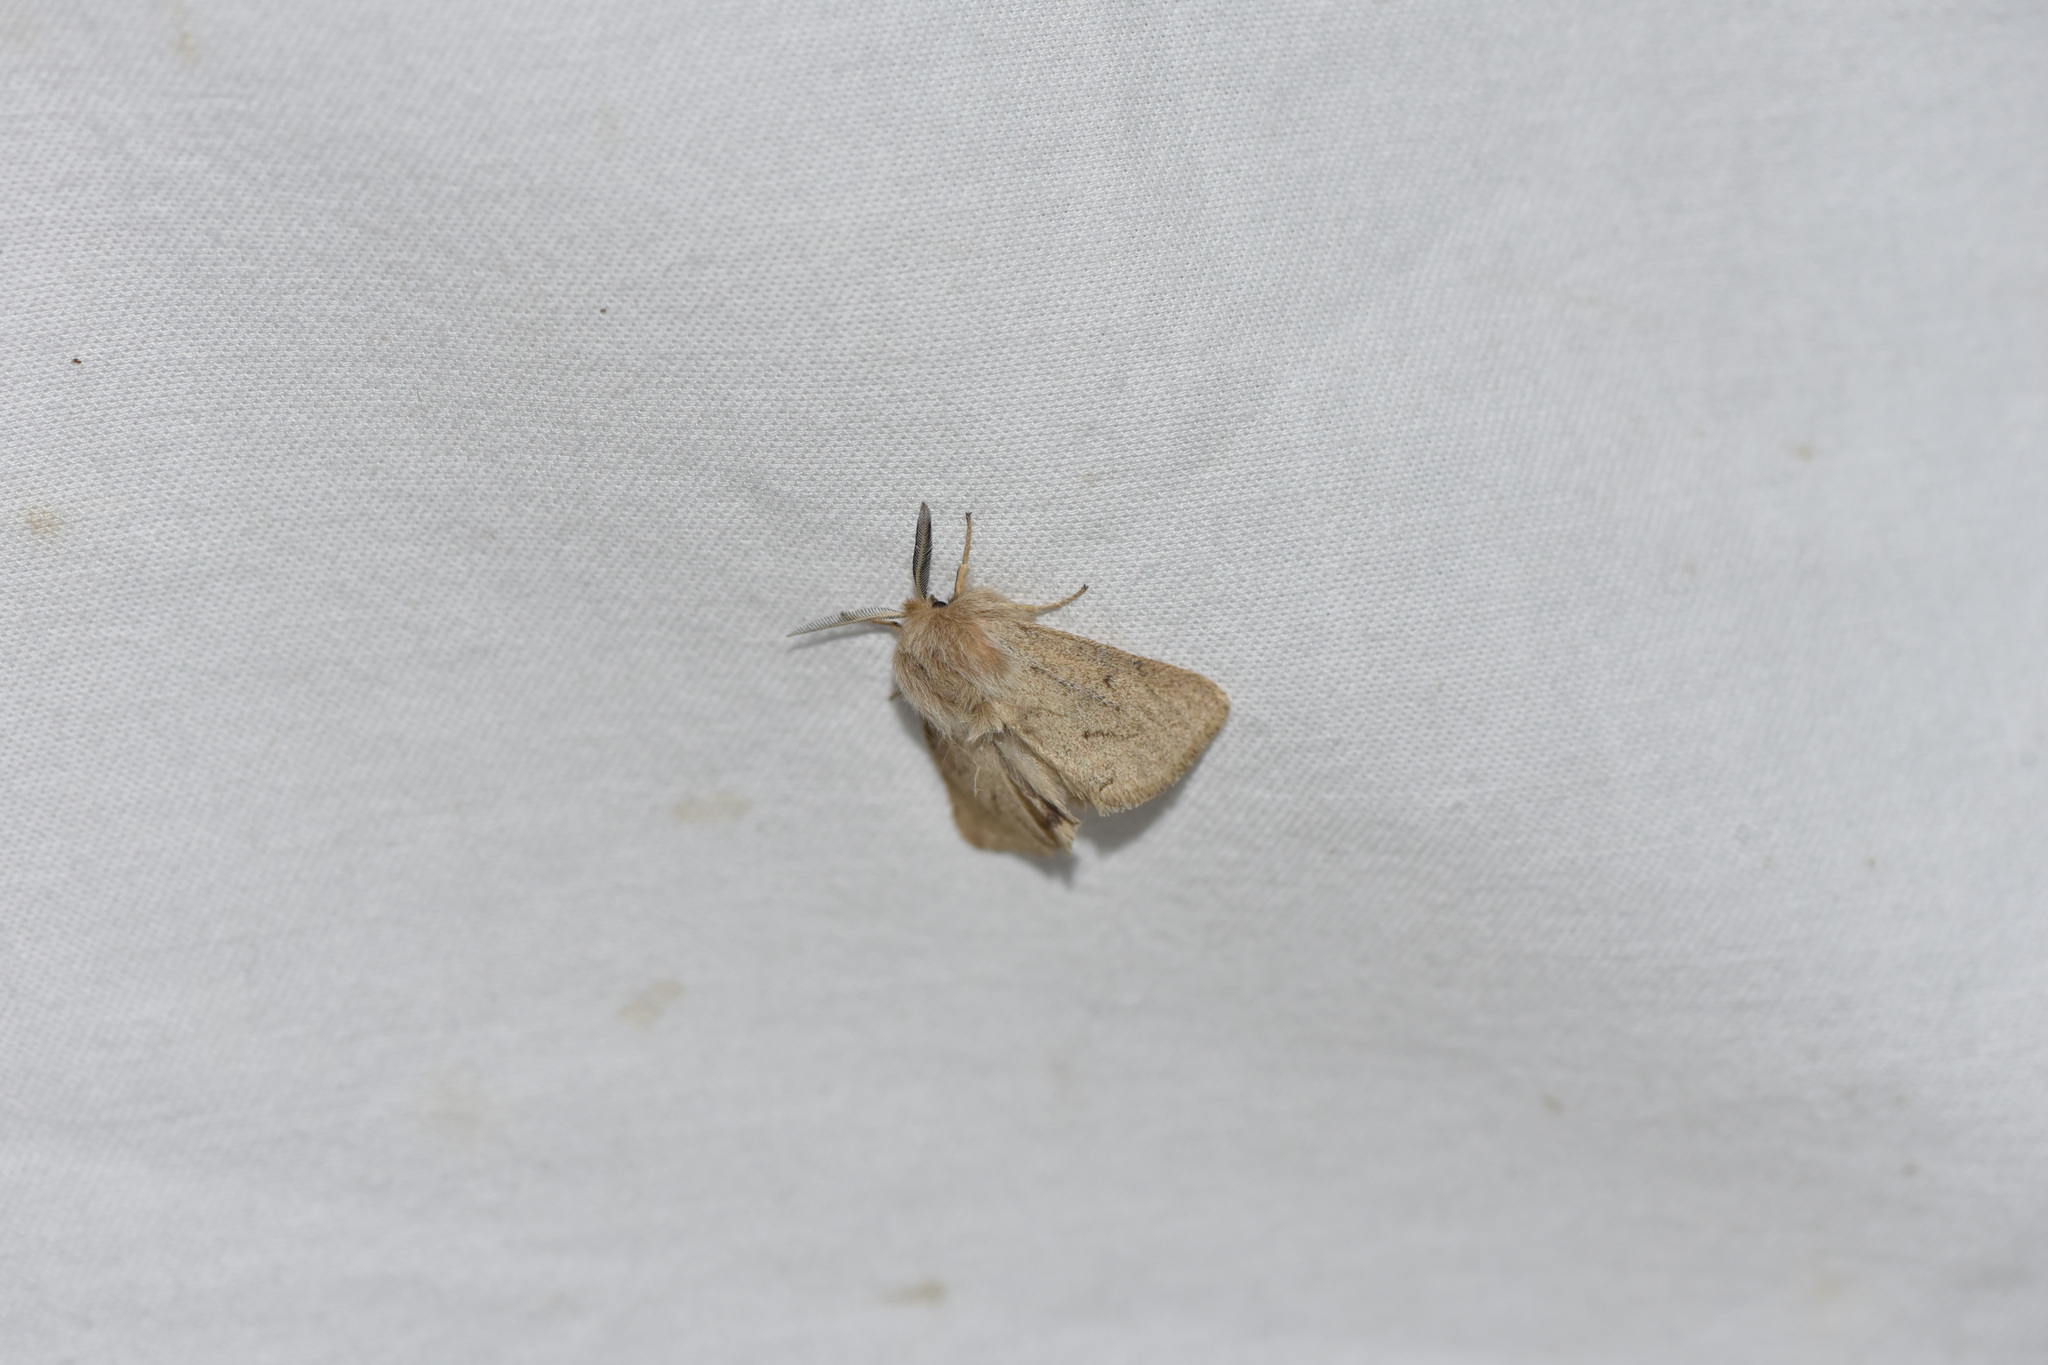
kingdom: Animalia
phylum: Arthropoda
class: Insecta
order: Lepidoptera
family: Erebidae
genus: Spilosoma
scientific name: Spilosoma vagans
